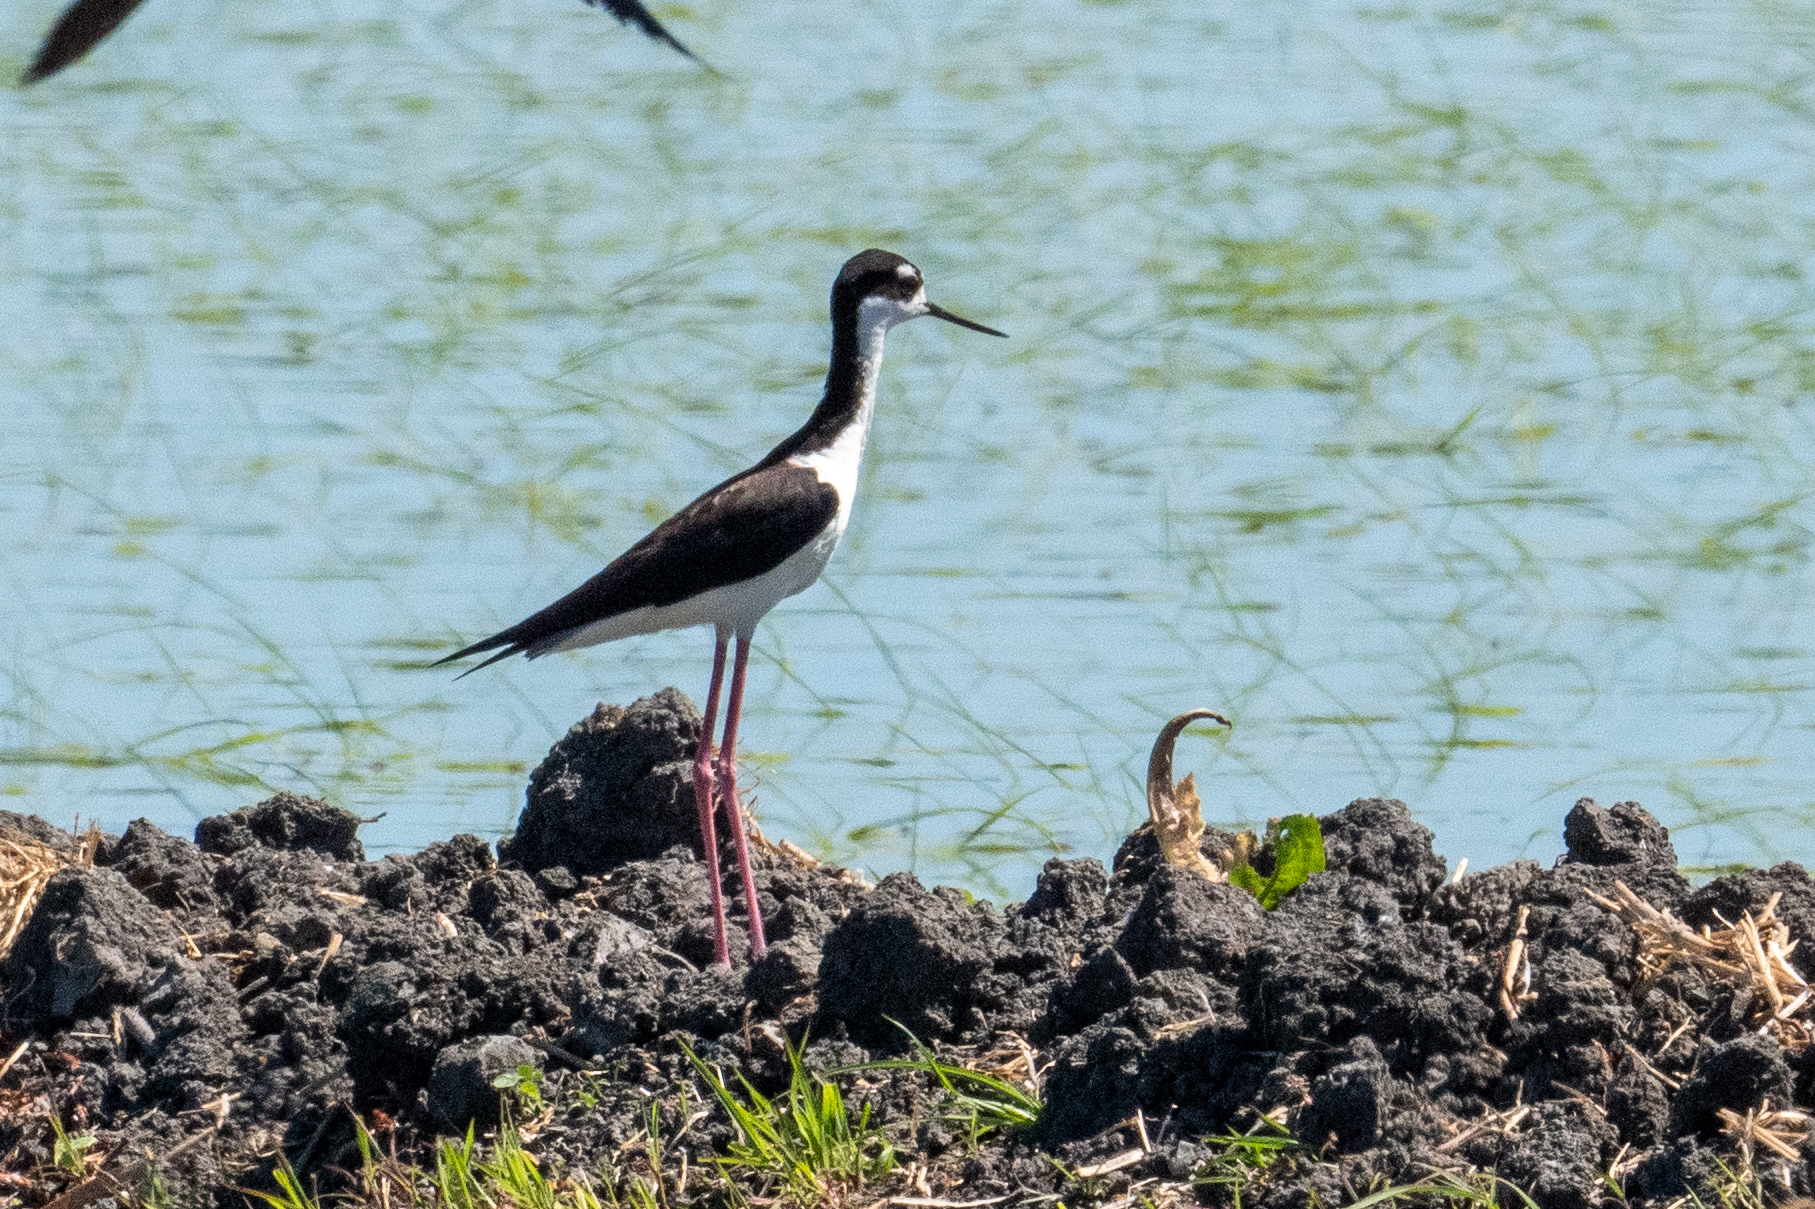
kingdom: Animalia
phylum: Chordata
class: Aves
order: Charadriiformes
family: Recurvirostridae
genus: Himantopus
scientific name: Himantopus mexicanus
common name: Black-necked stilt
